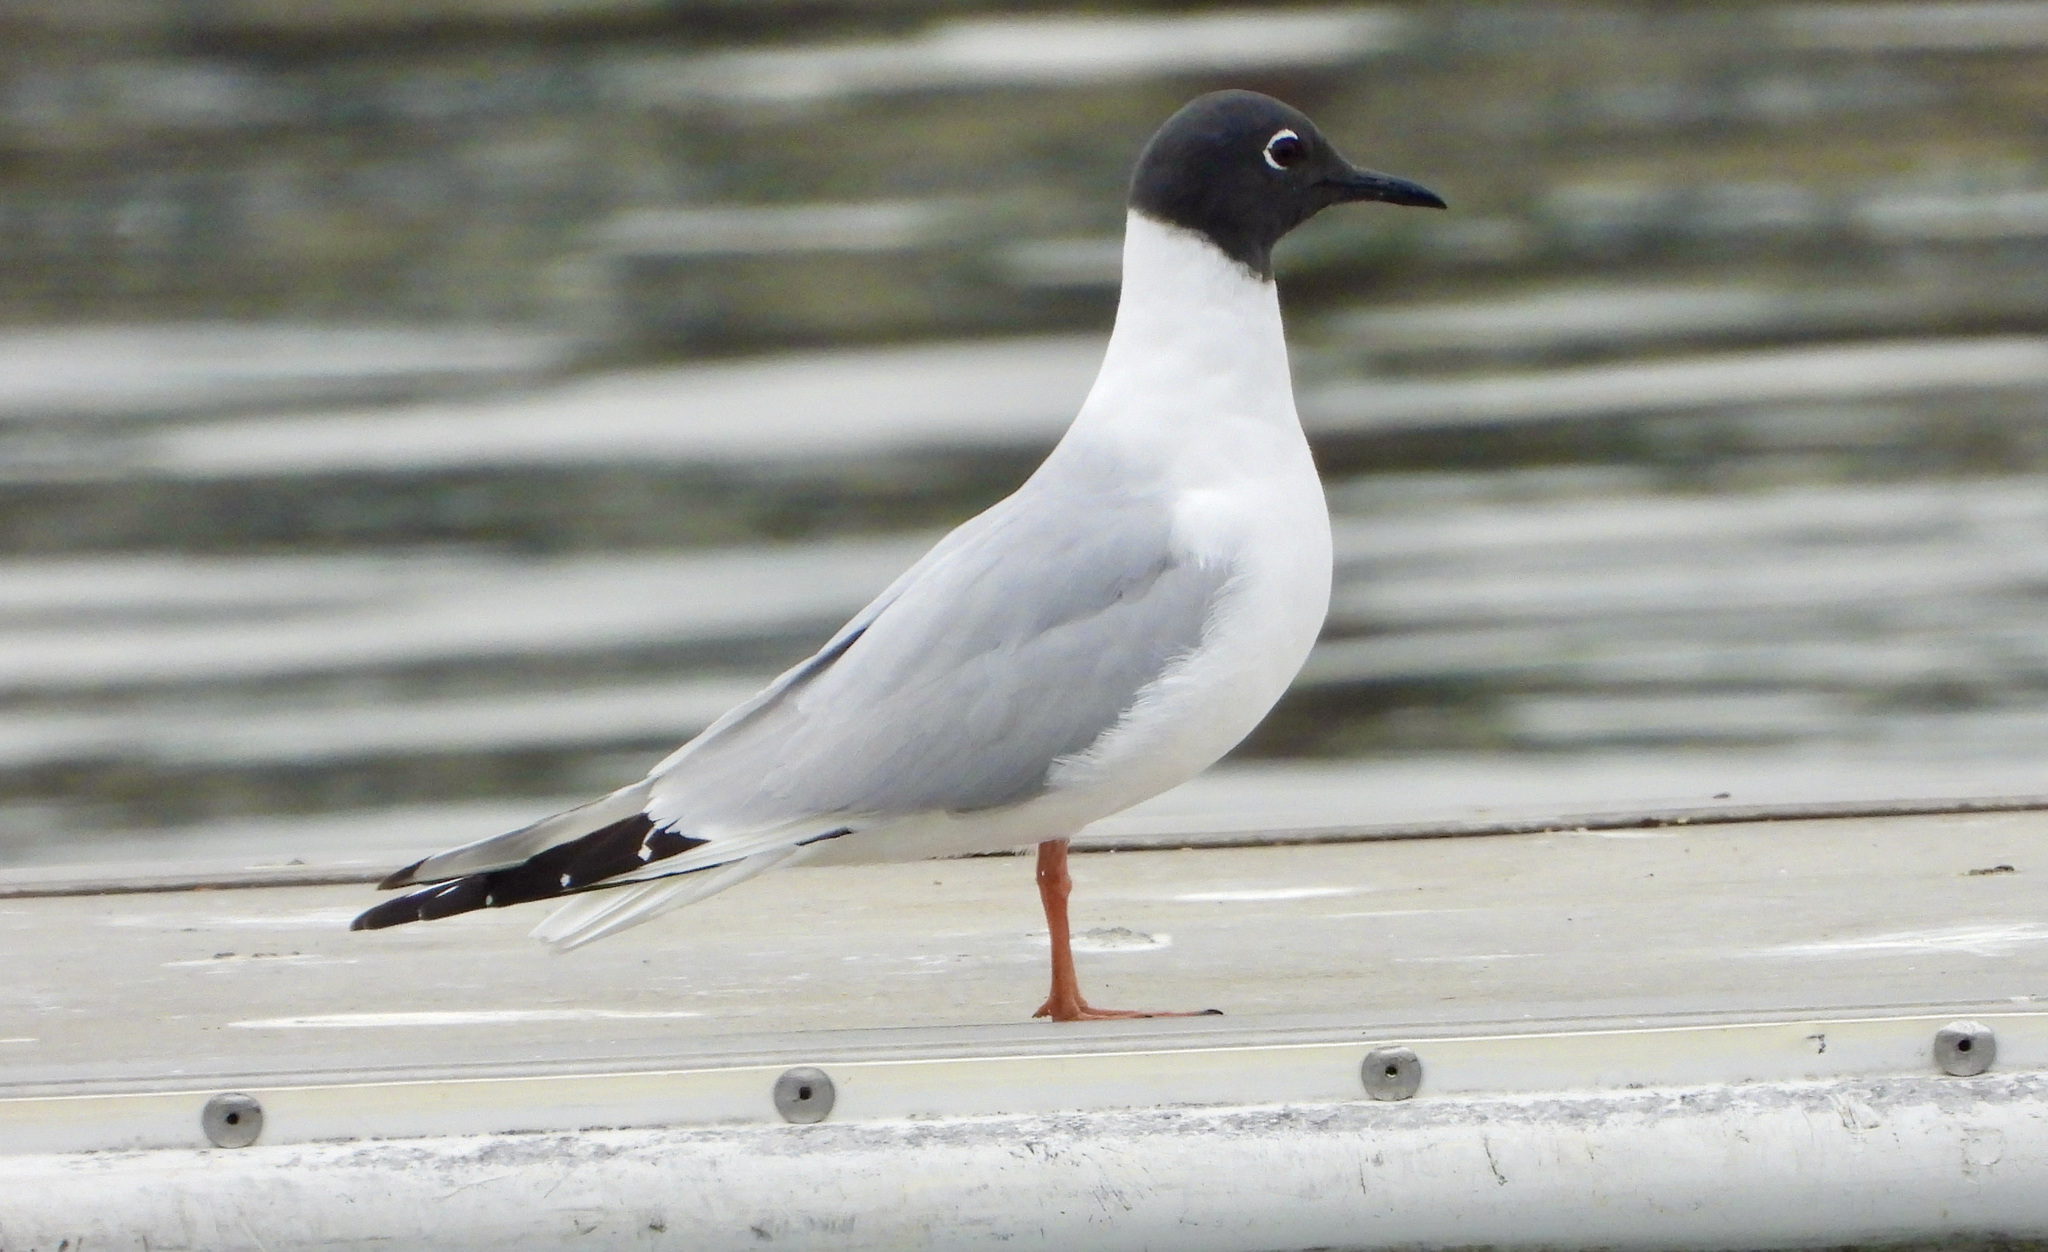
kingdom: Animalia
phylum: Chordata
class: Aves
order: Charadriiformes
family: Laridae
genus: Chroicocephalus
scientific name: Chroicocephalus philadelphia
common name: Bonaparte's gull
